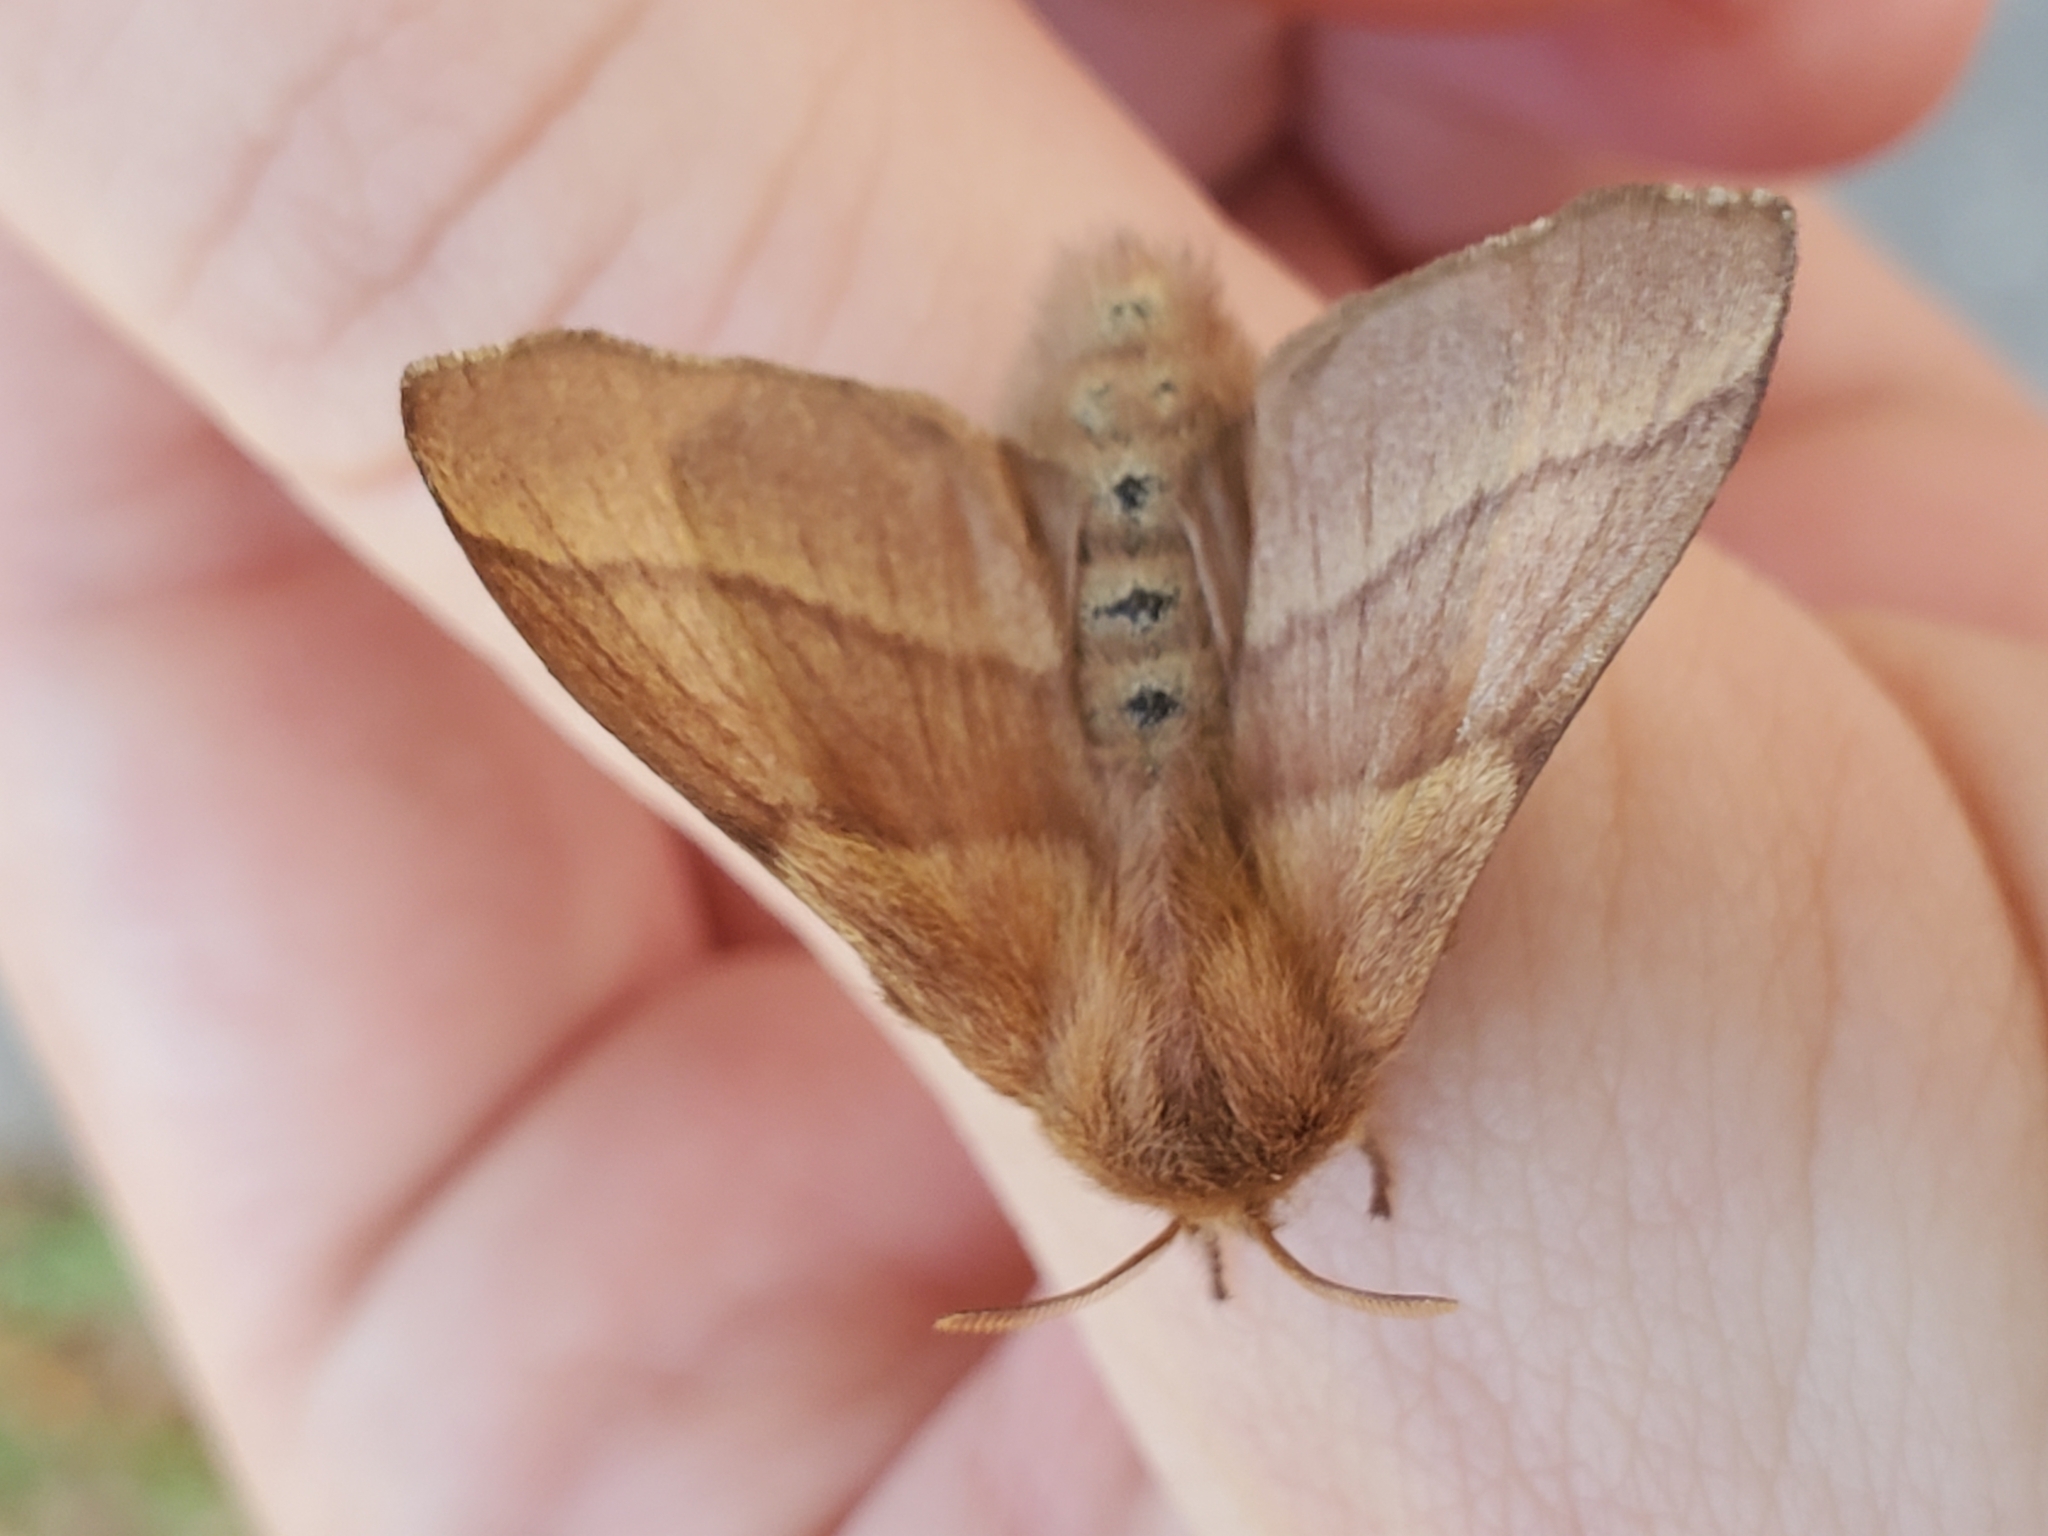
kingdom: Animalia
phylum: Arthropoda
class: Insecta
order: Lepidoptera
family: Lasiocampidae
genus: Malacosoma
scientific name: Malacosoma disstria
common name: Forest tent caterpillar
